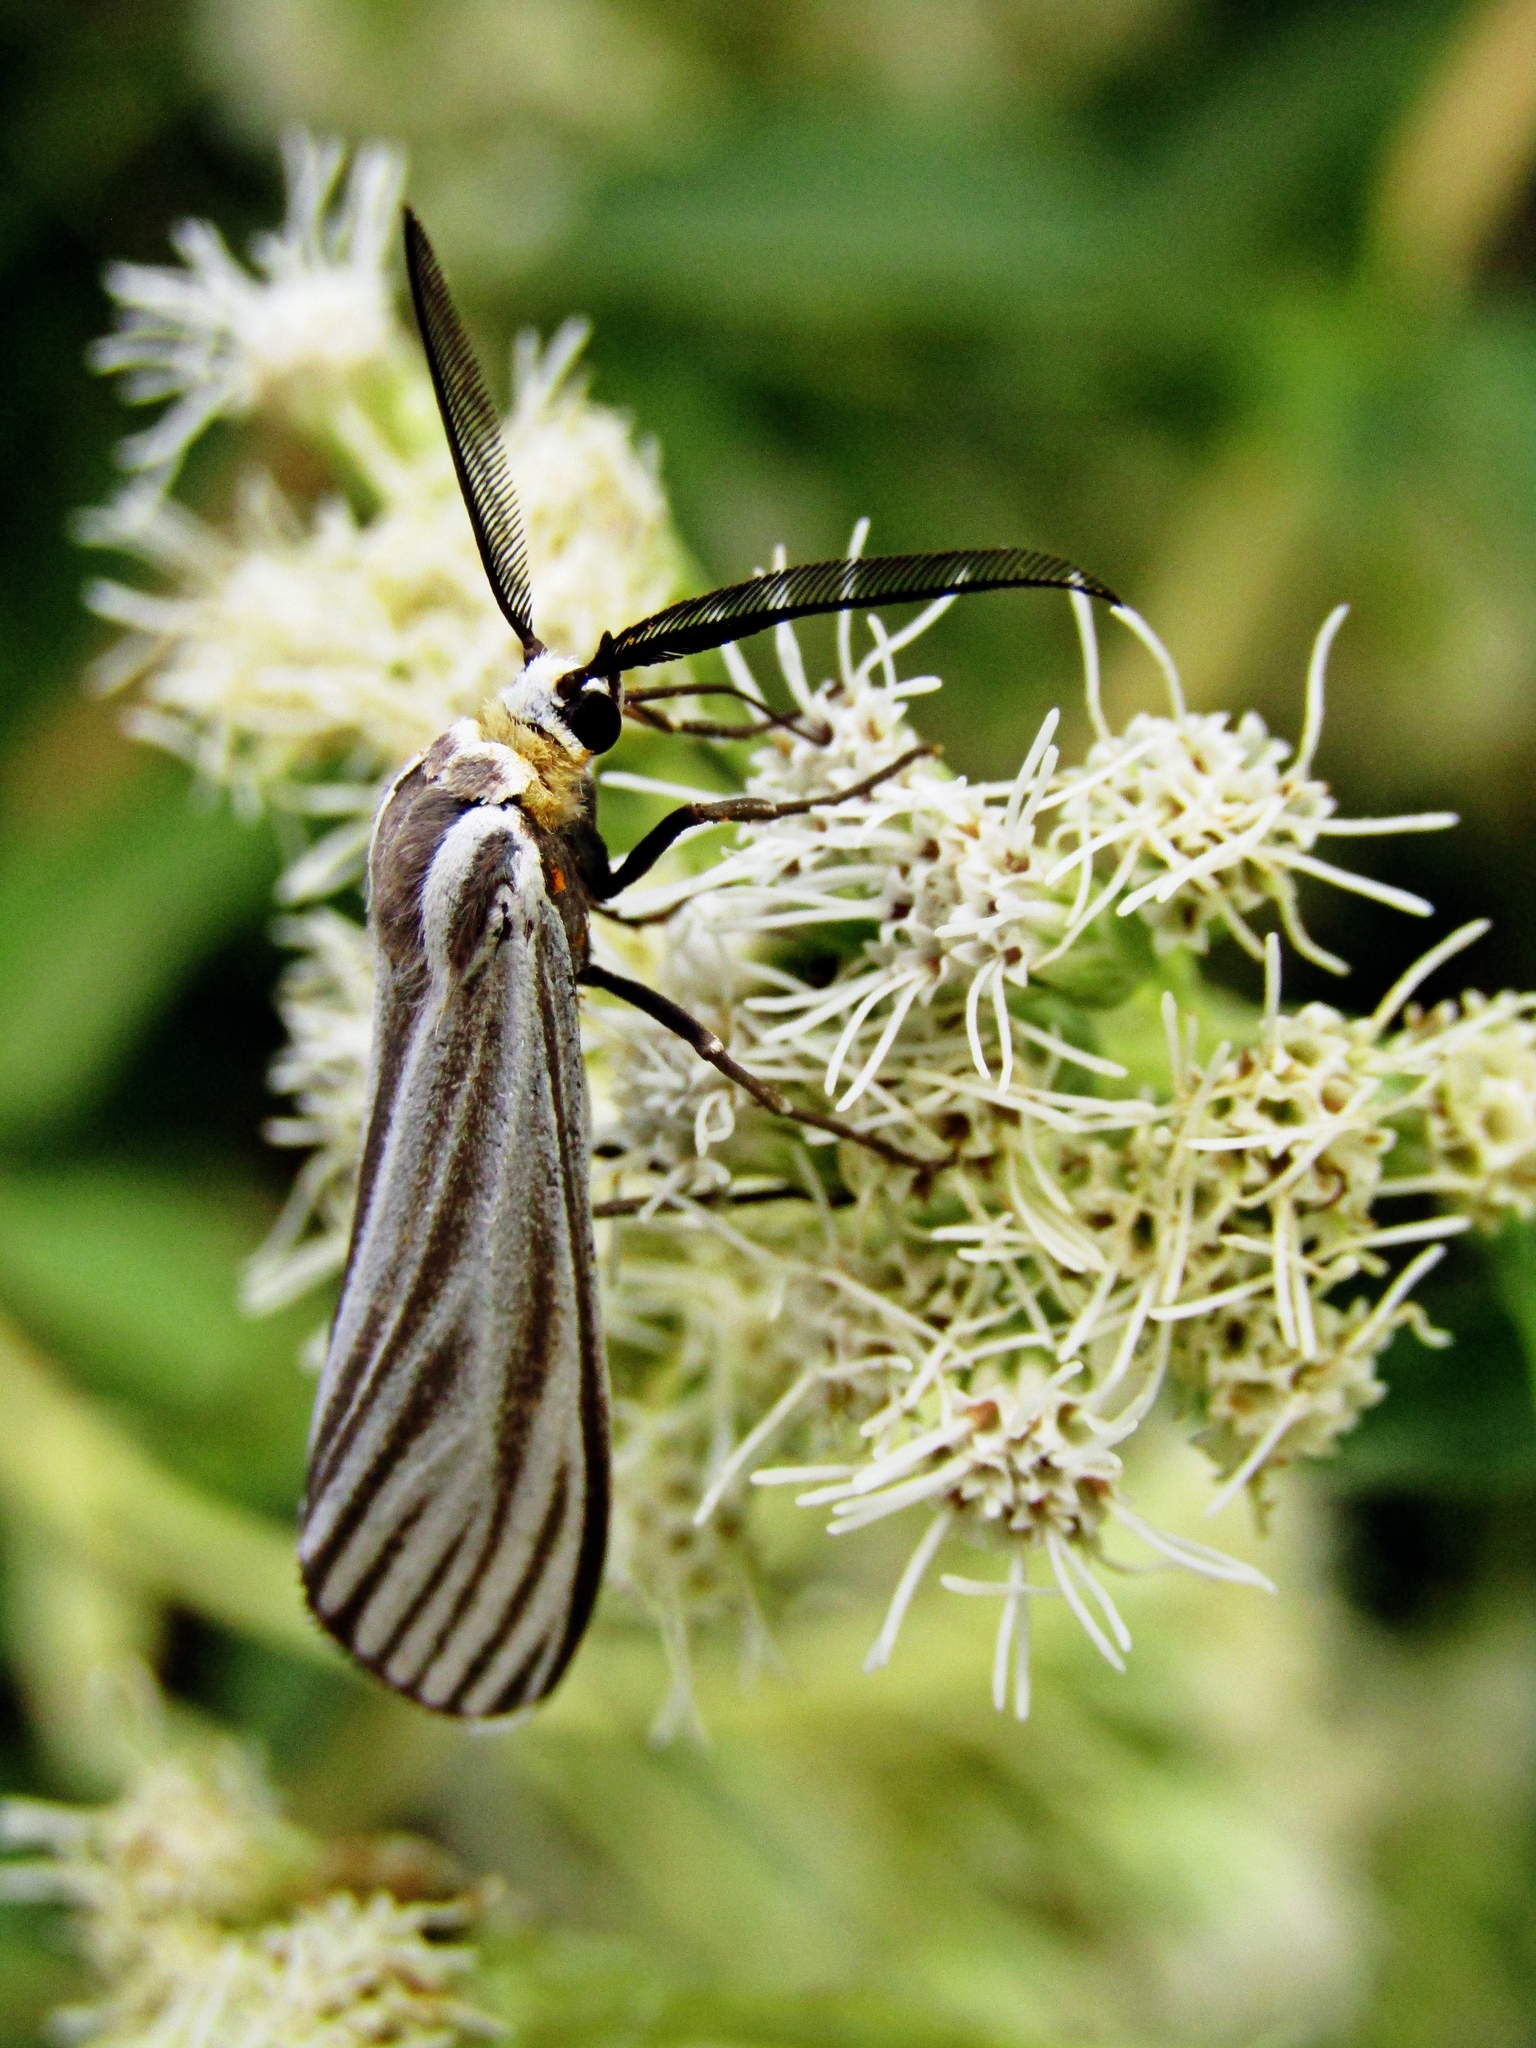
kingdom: Animalia
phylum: Arthropoda
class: Insecta
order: Lepidoptera
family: Erebidae
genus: Ctenucha
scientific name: Ctenucha vittigerum
